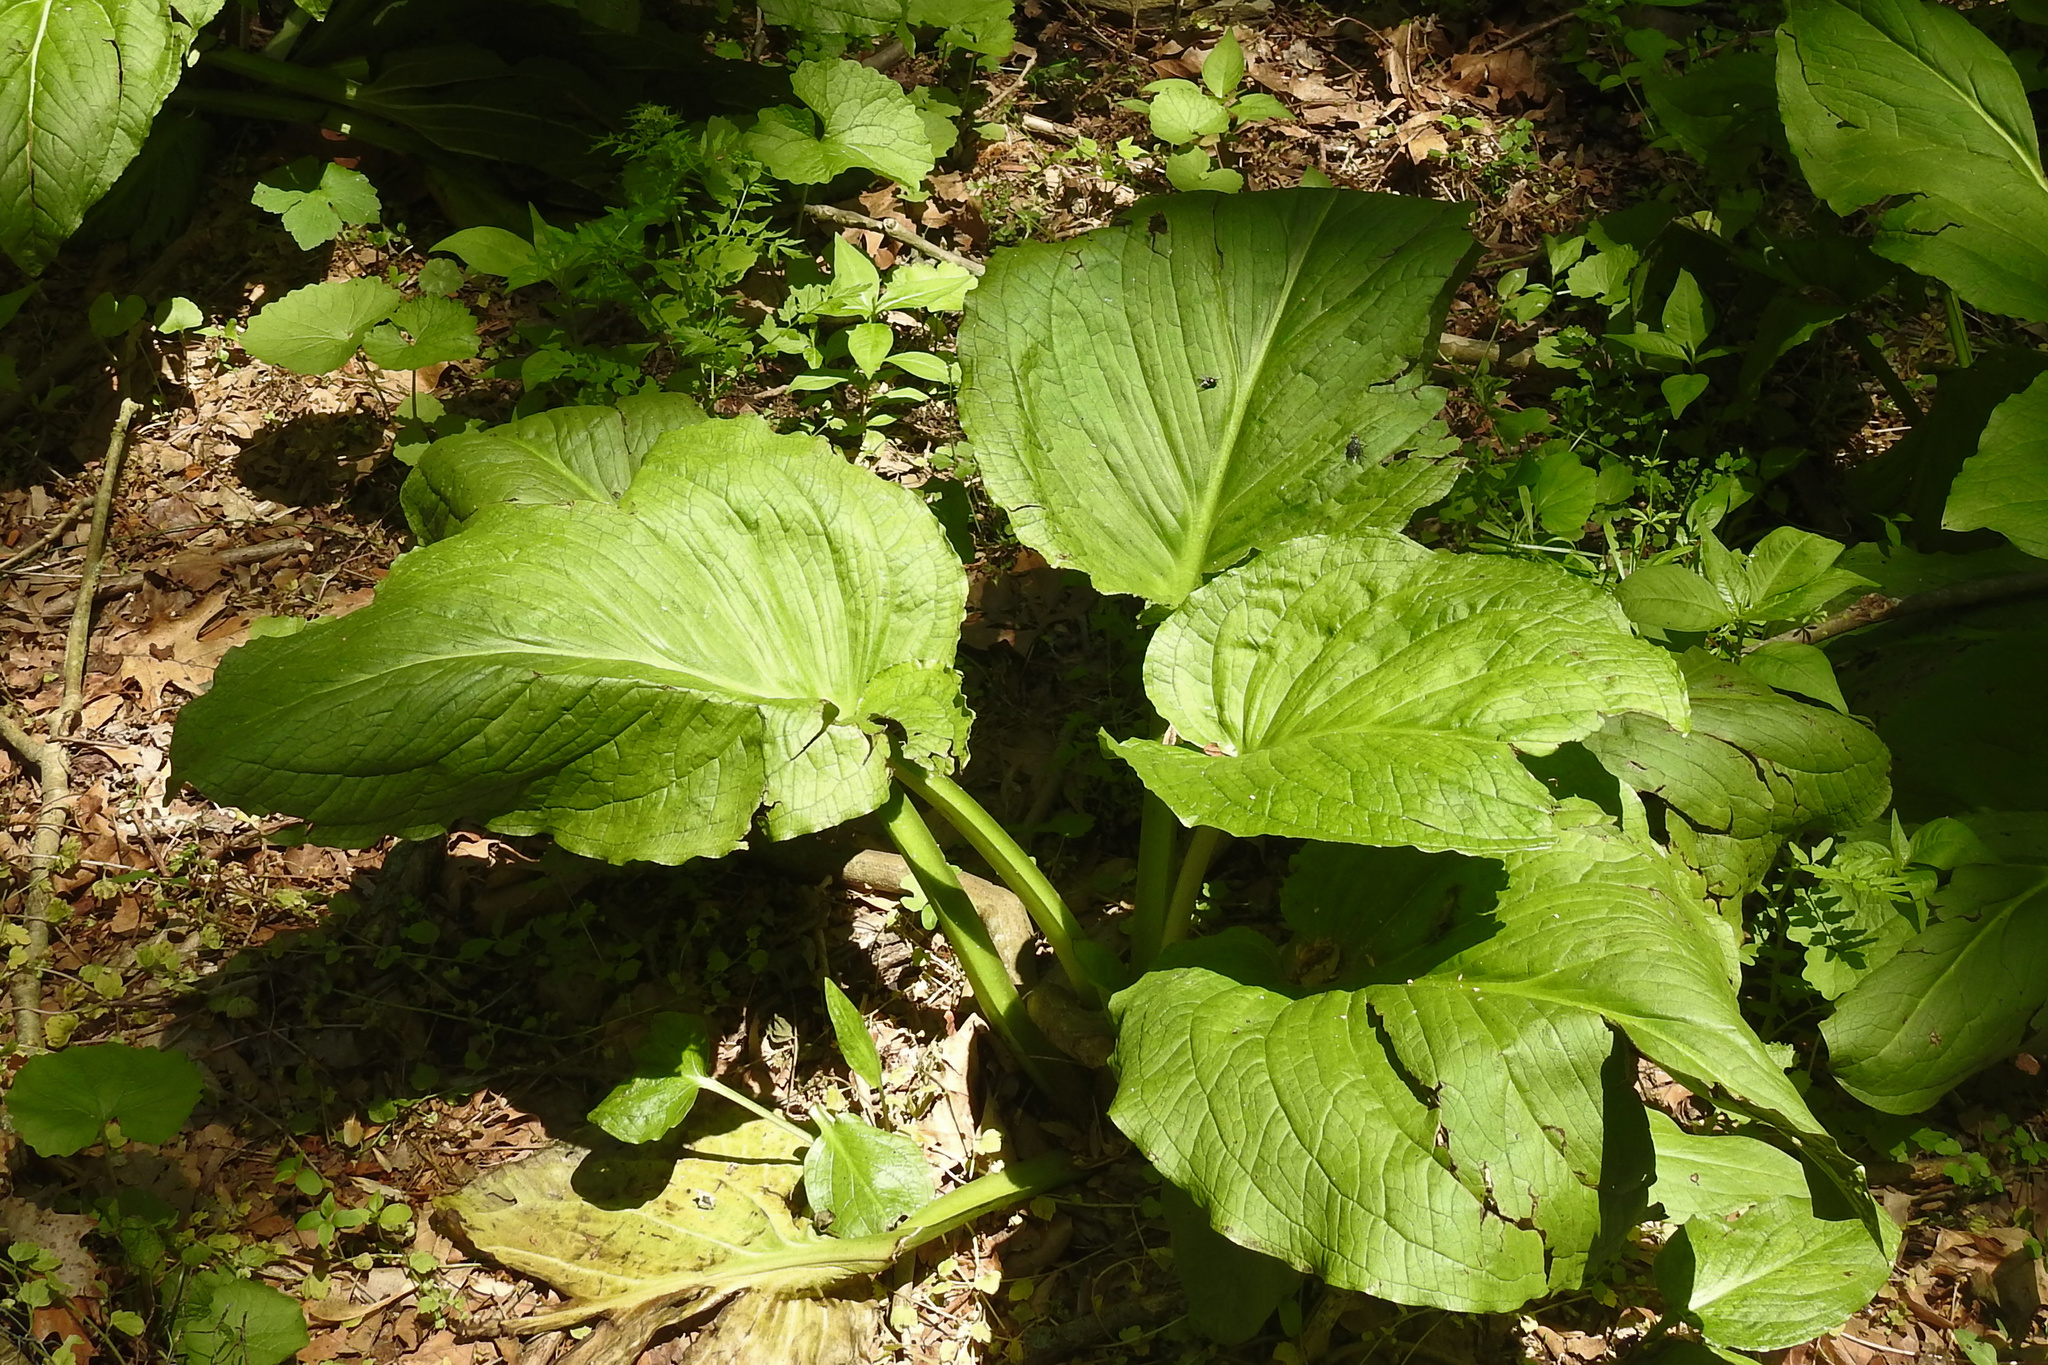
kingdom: Plantae
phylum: Tracheophyta
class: Liliopsida
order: Alismatales
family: Araceae
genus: Symplocarpus
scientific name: Symplocarpus foetidus
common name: Eastern skunk cabbage
